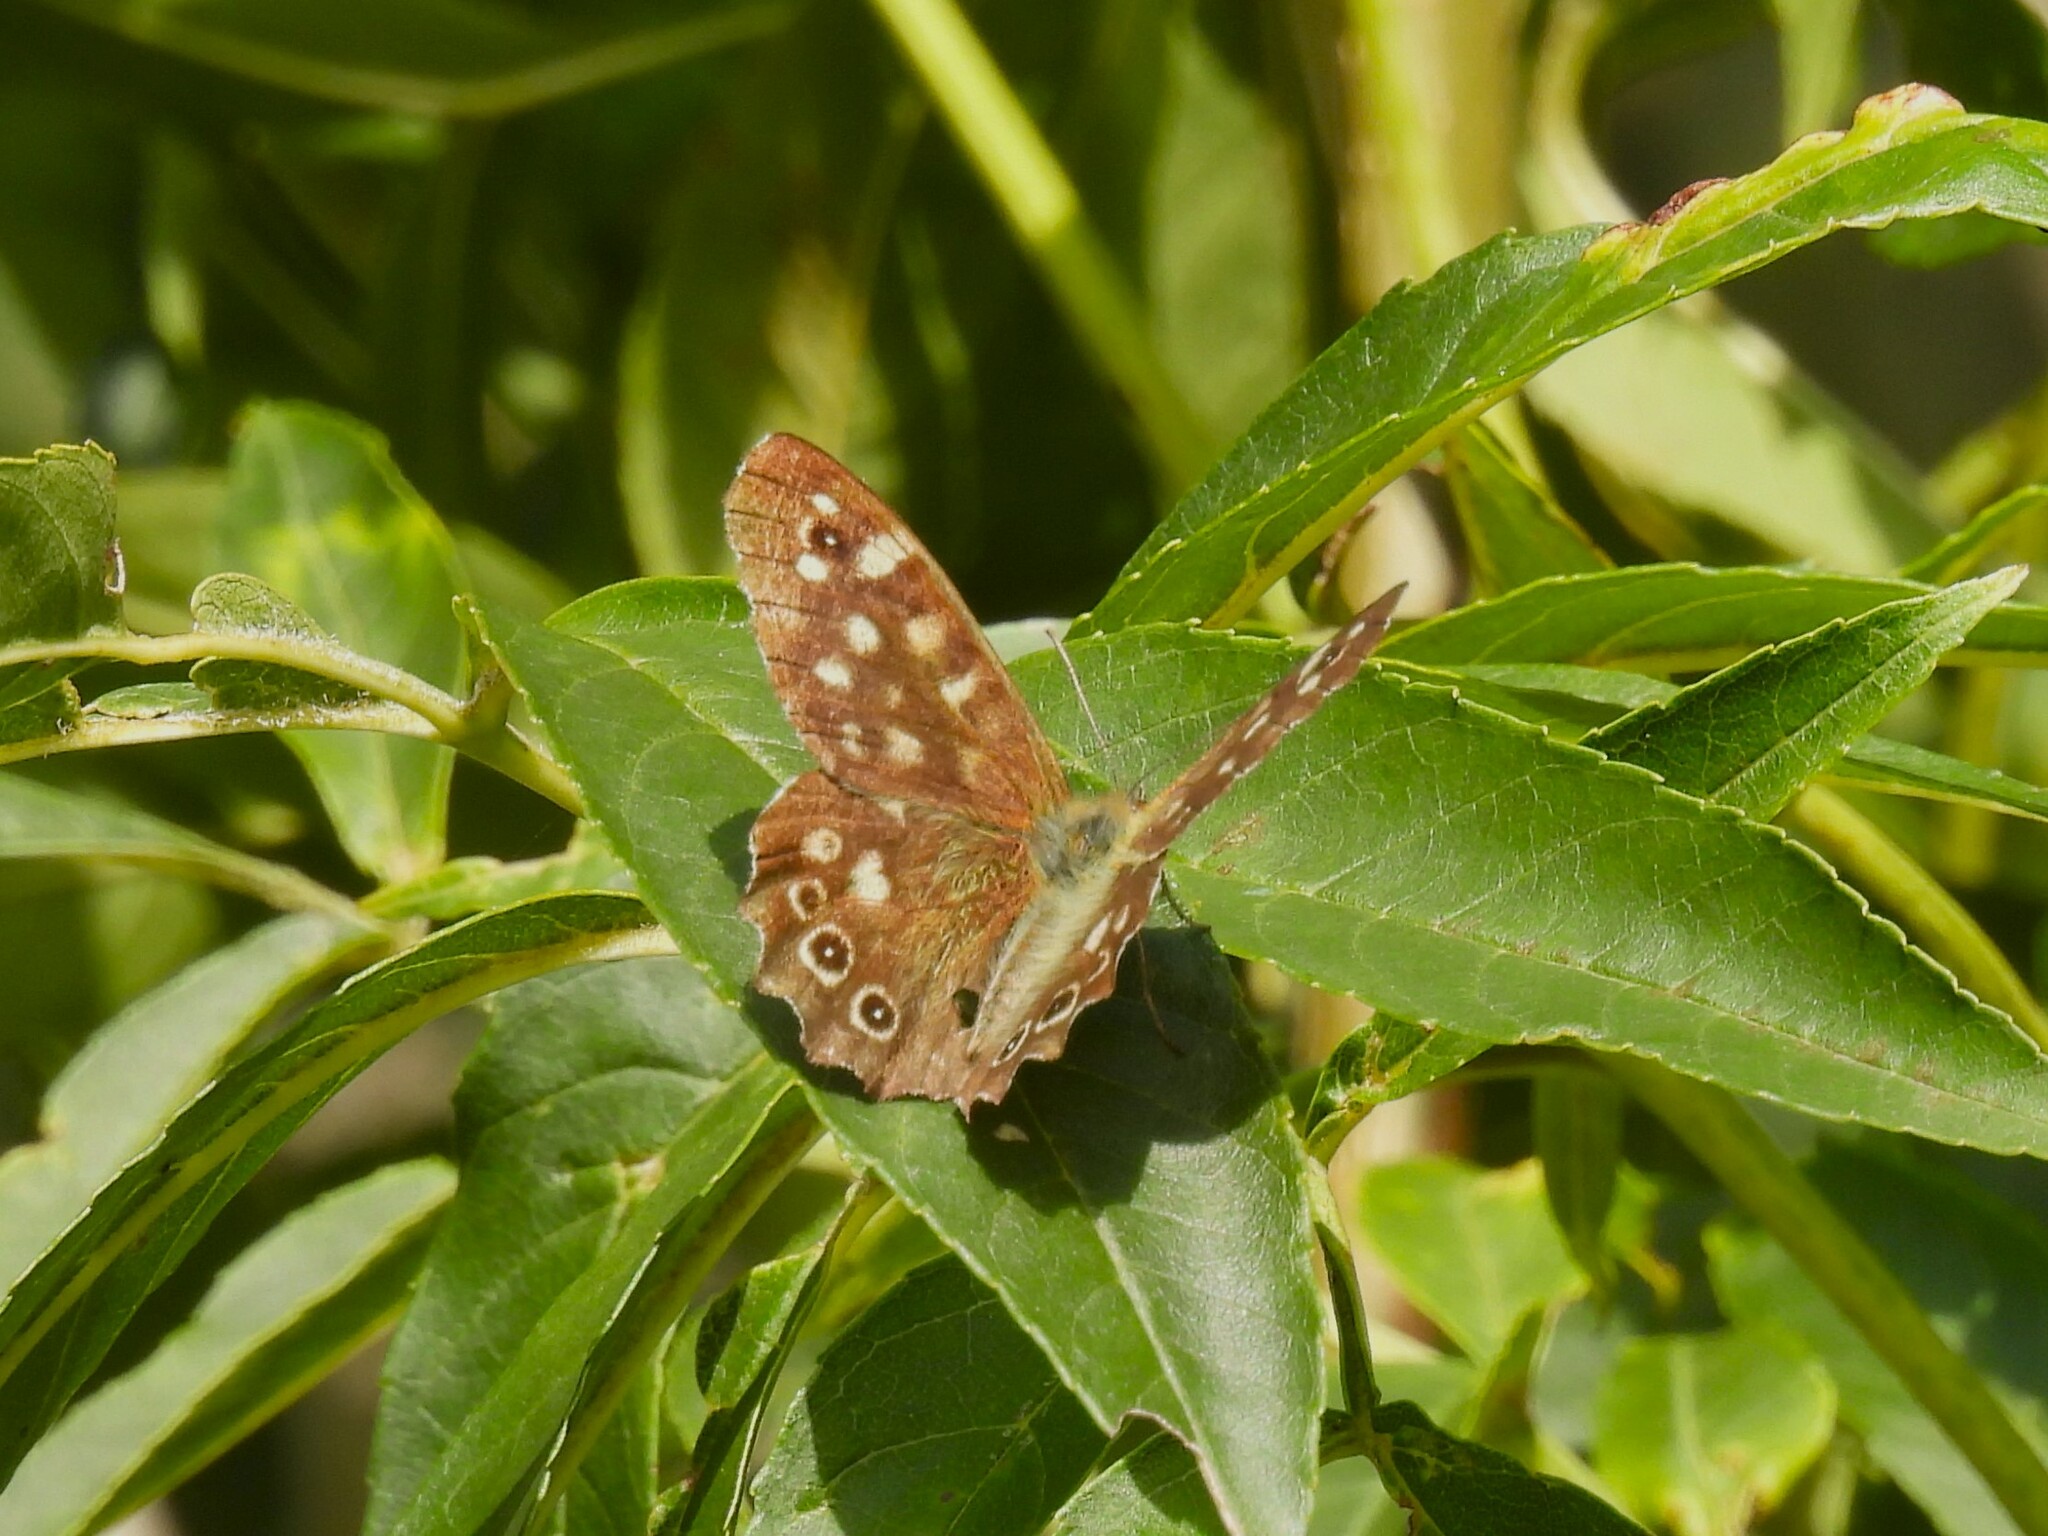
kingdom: Animalia
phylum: Arthropoda
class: Insecta
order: Lepidoptera
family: Nymphalidae
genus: Pararge
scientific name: Pararge aegeria
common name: Speckled wood
